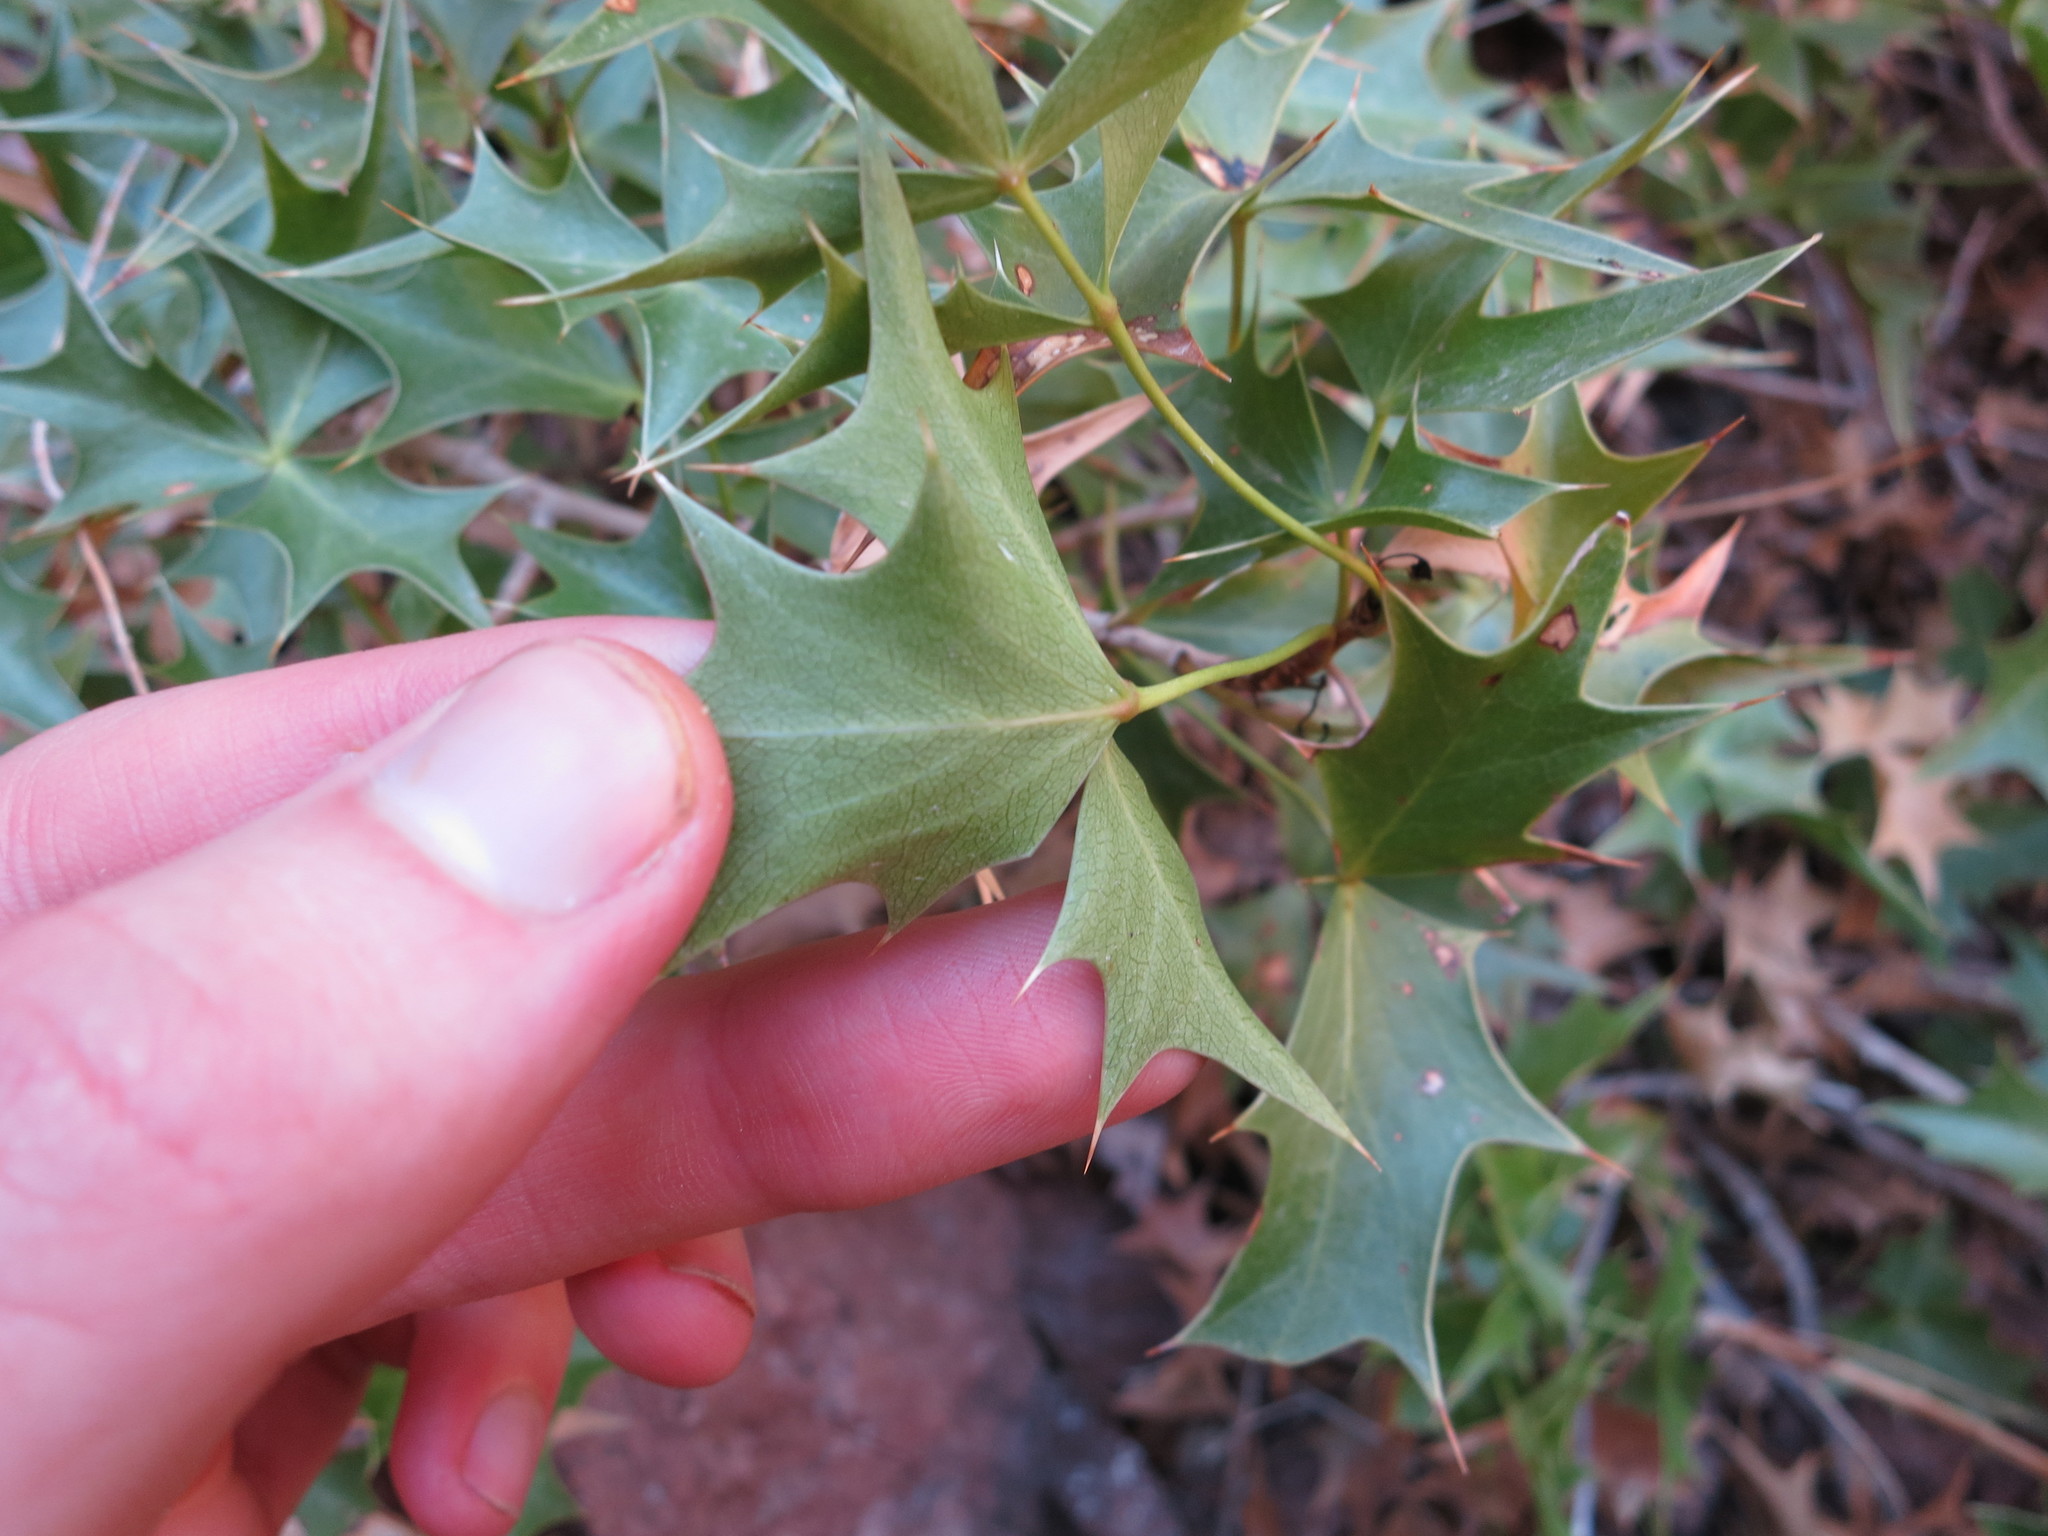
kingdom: Plantae
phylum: Tracheophyta
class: Magnoliopsida
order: Ranunculales
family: Berberidaceae
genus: Mahonia
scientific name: Mahonia harrisoniana
